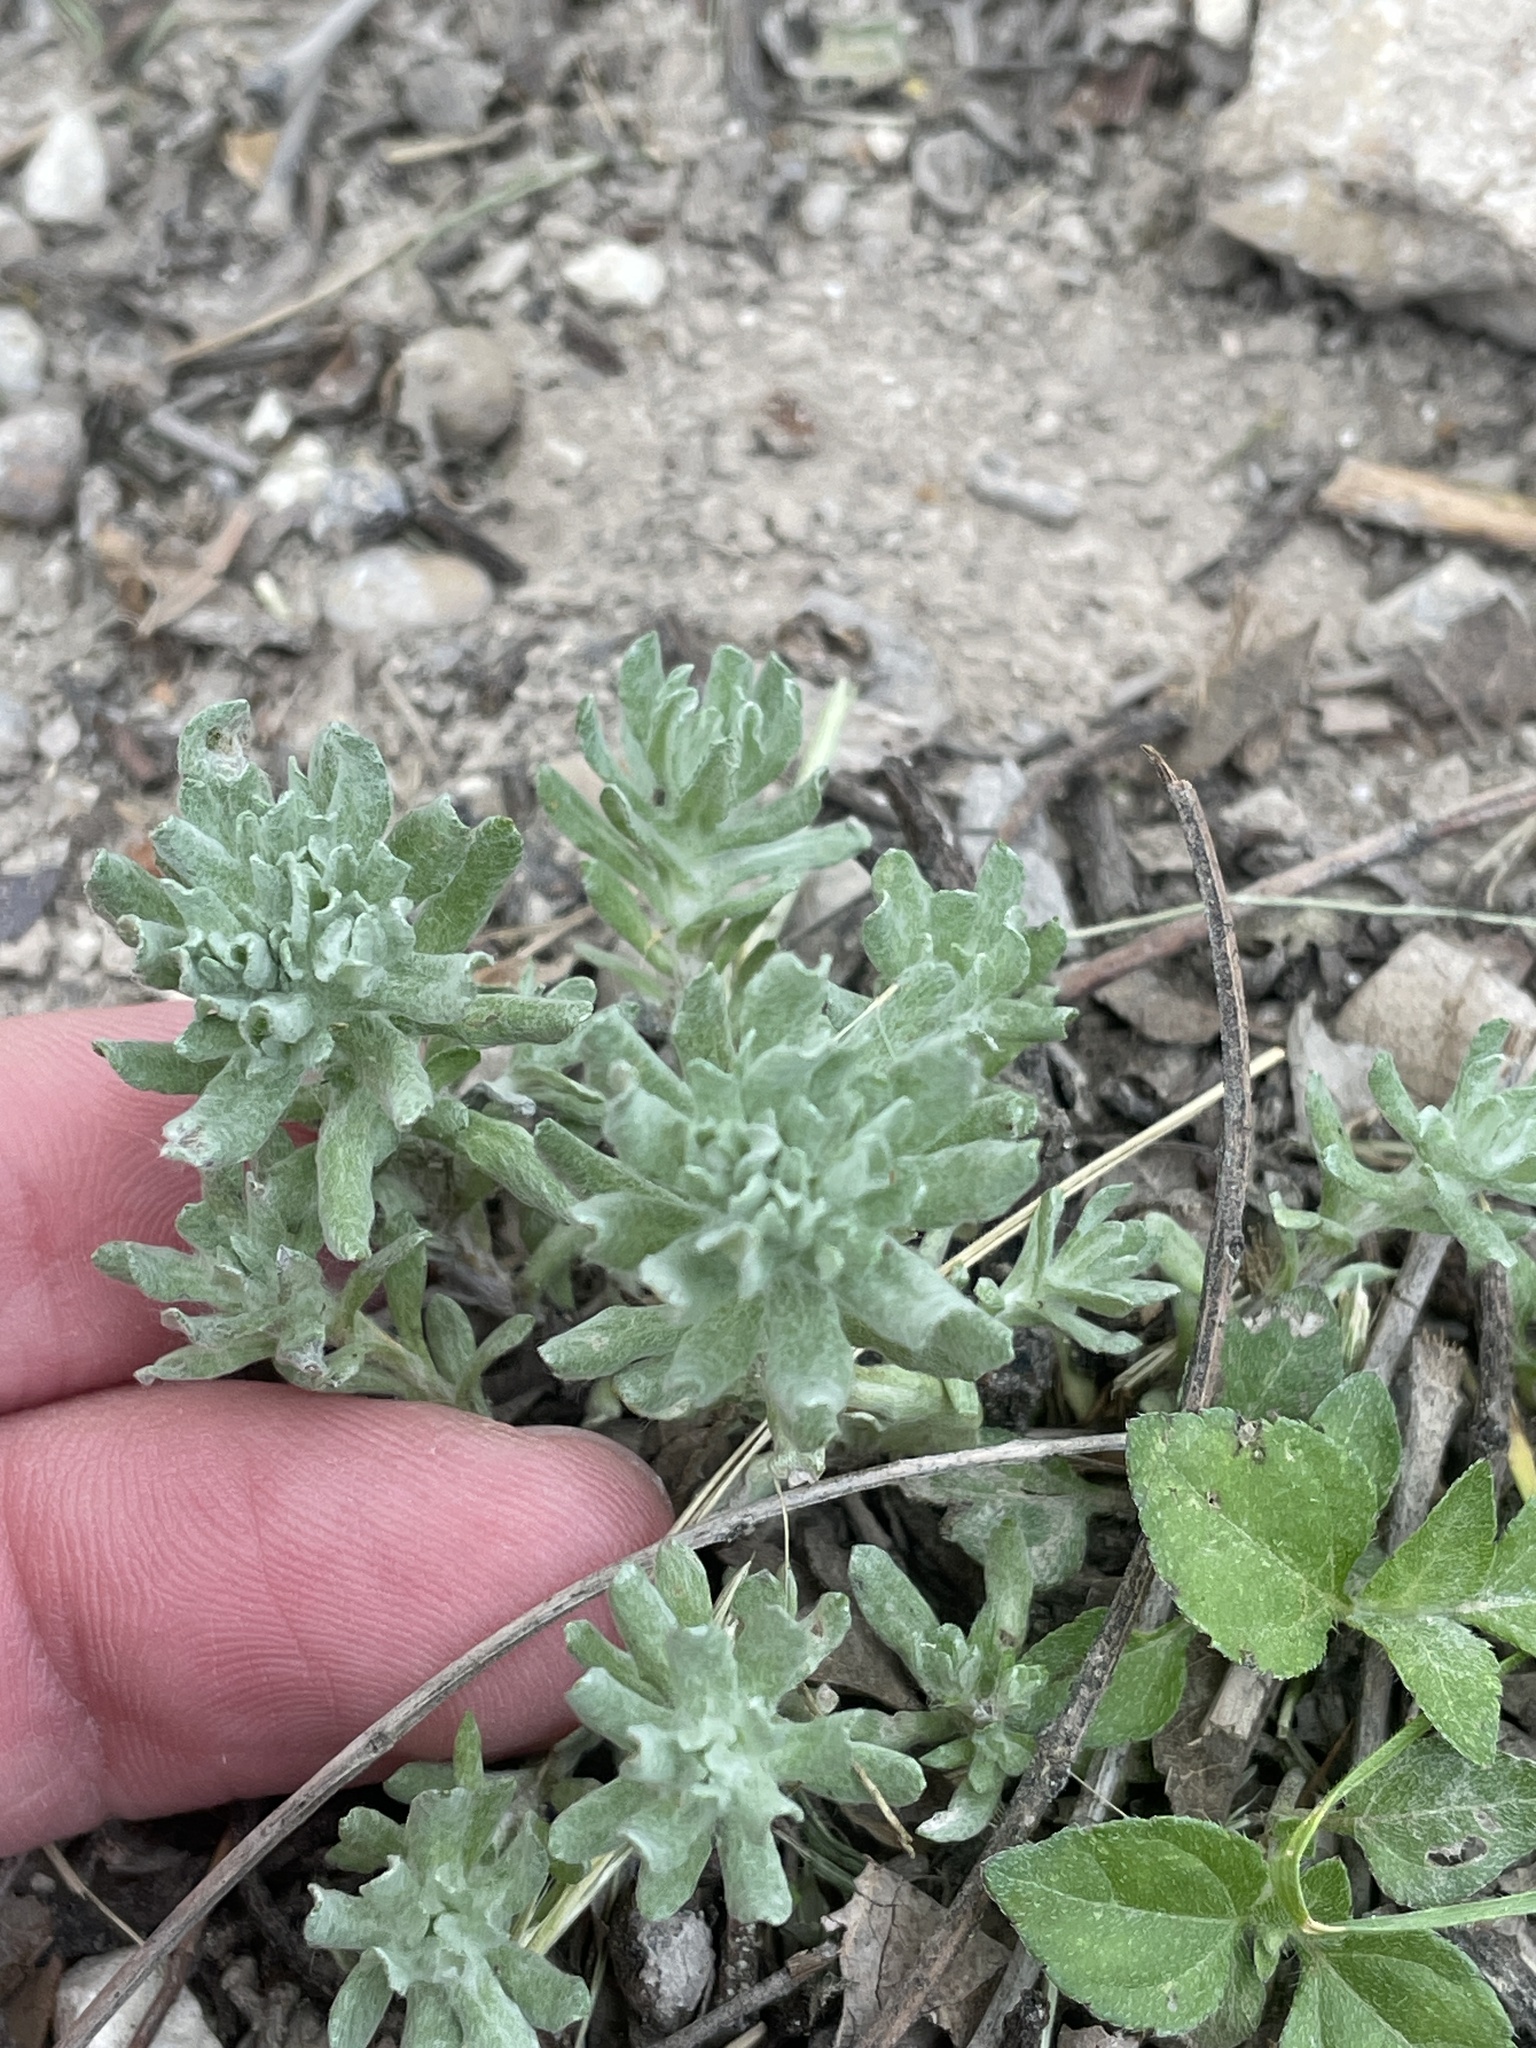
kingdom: Plantae
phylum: Tracheophyta
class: Magnoliopsida
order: Asterales
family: Asteraceae
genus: Diaperia
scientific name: Diaperia prolifera
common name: Big-head rabbit-tobacco
